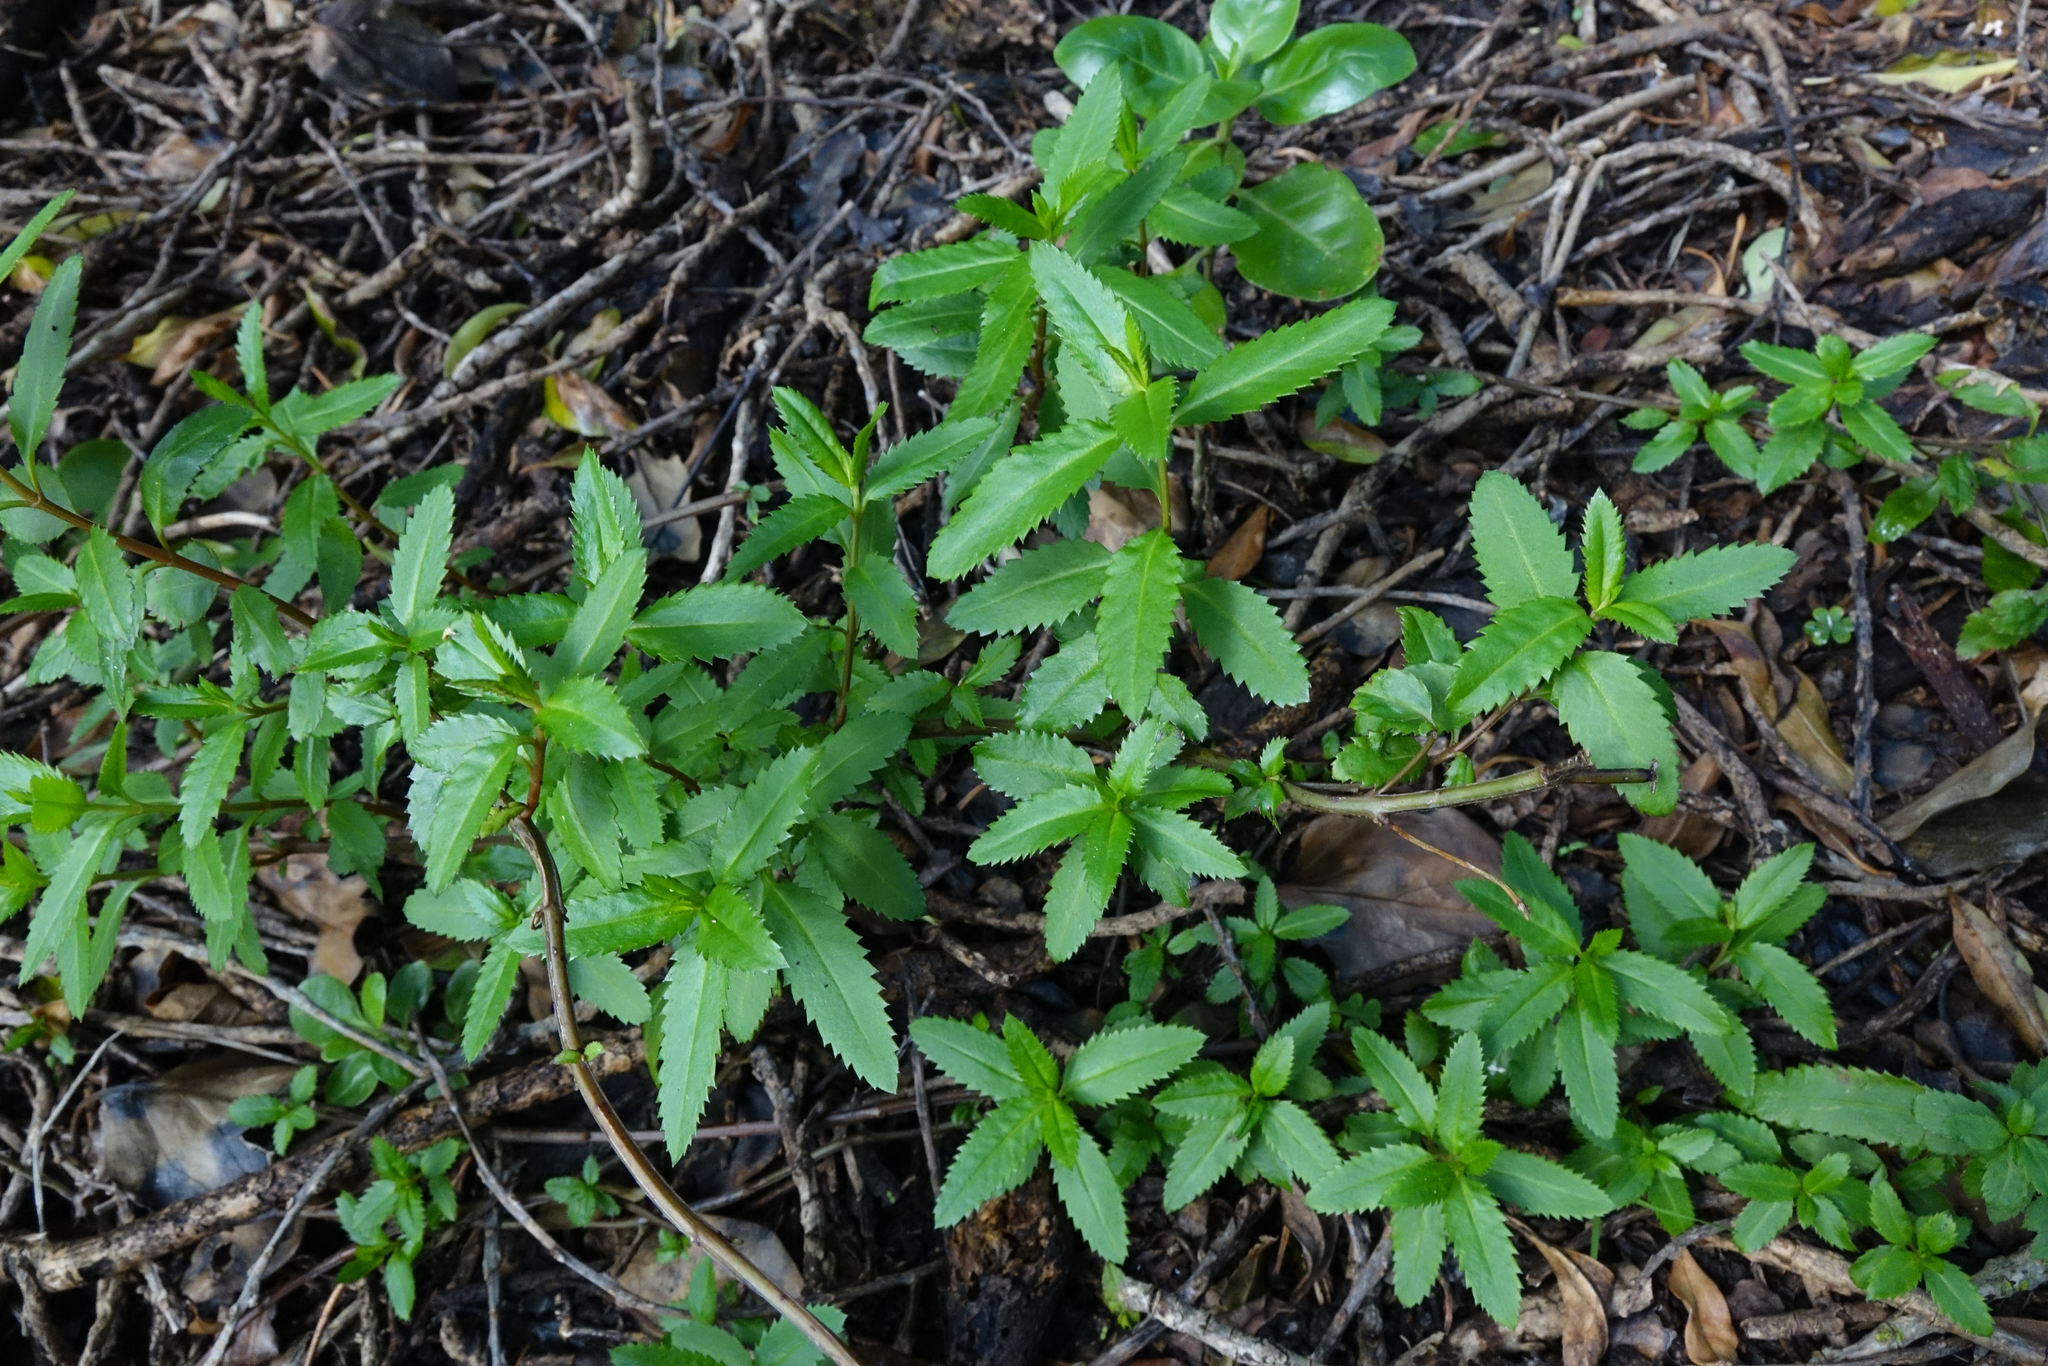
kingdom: Plantae
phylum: Tracheophyta
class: Magnoliopsida
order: Saxifragales
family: Haloragaceae
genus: Haloragis
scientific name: Haloragis erecta
